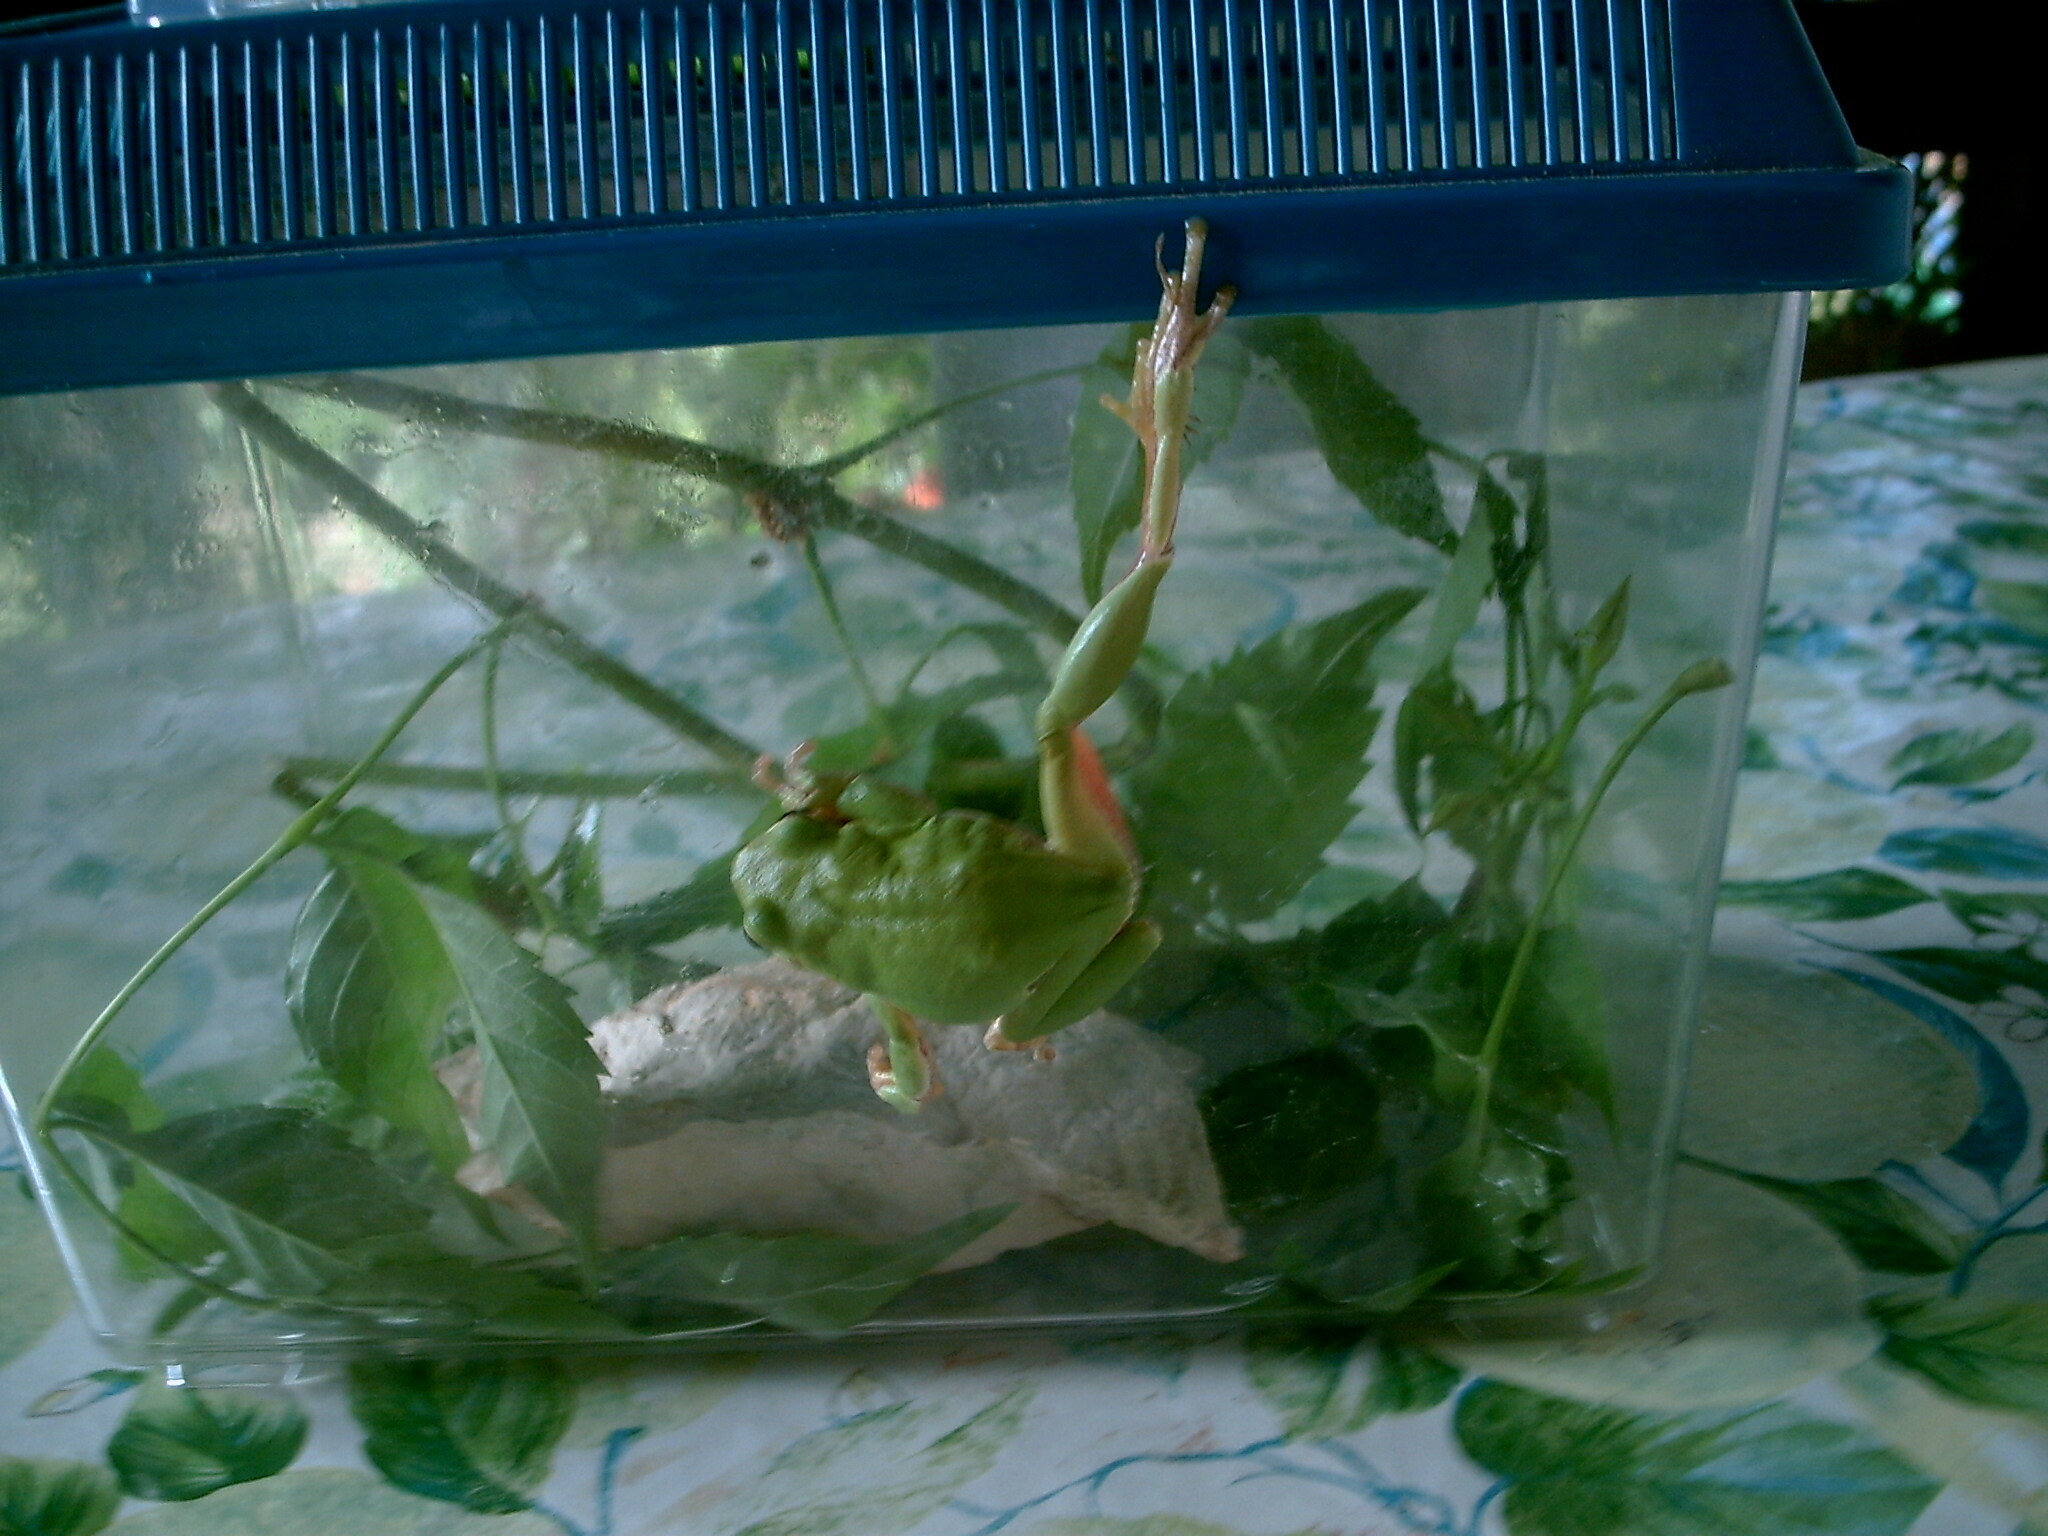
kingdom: Animalia
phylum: Chordata
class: Amphibia
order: Anura
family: Hylidae
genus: Hyla
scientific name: Hyla arborea
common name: Common tree frog
